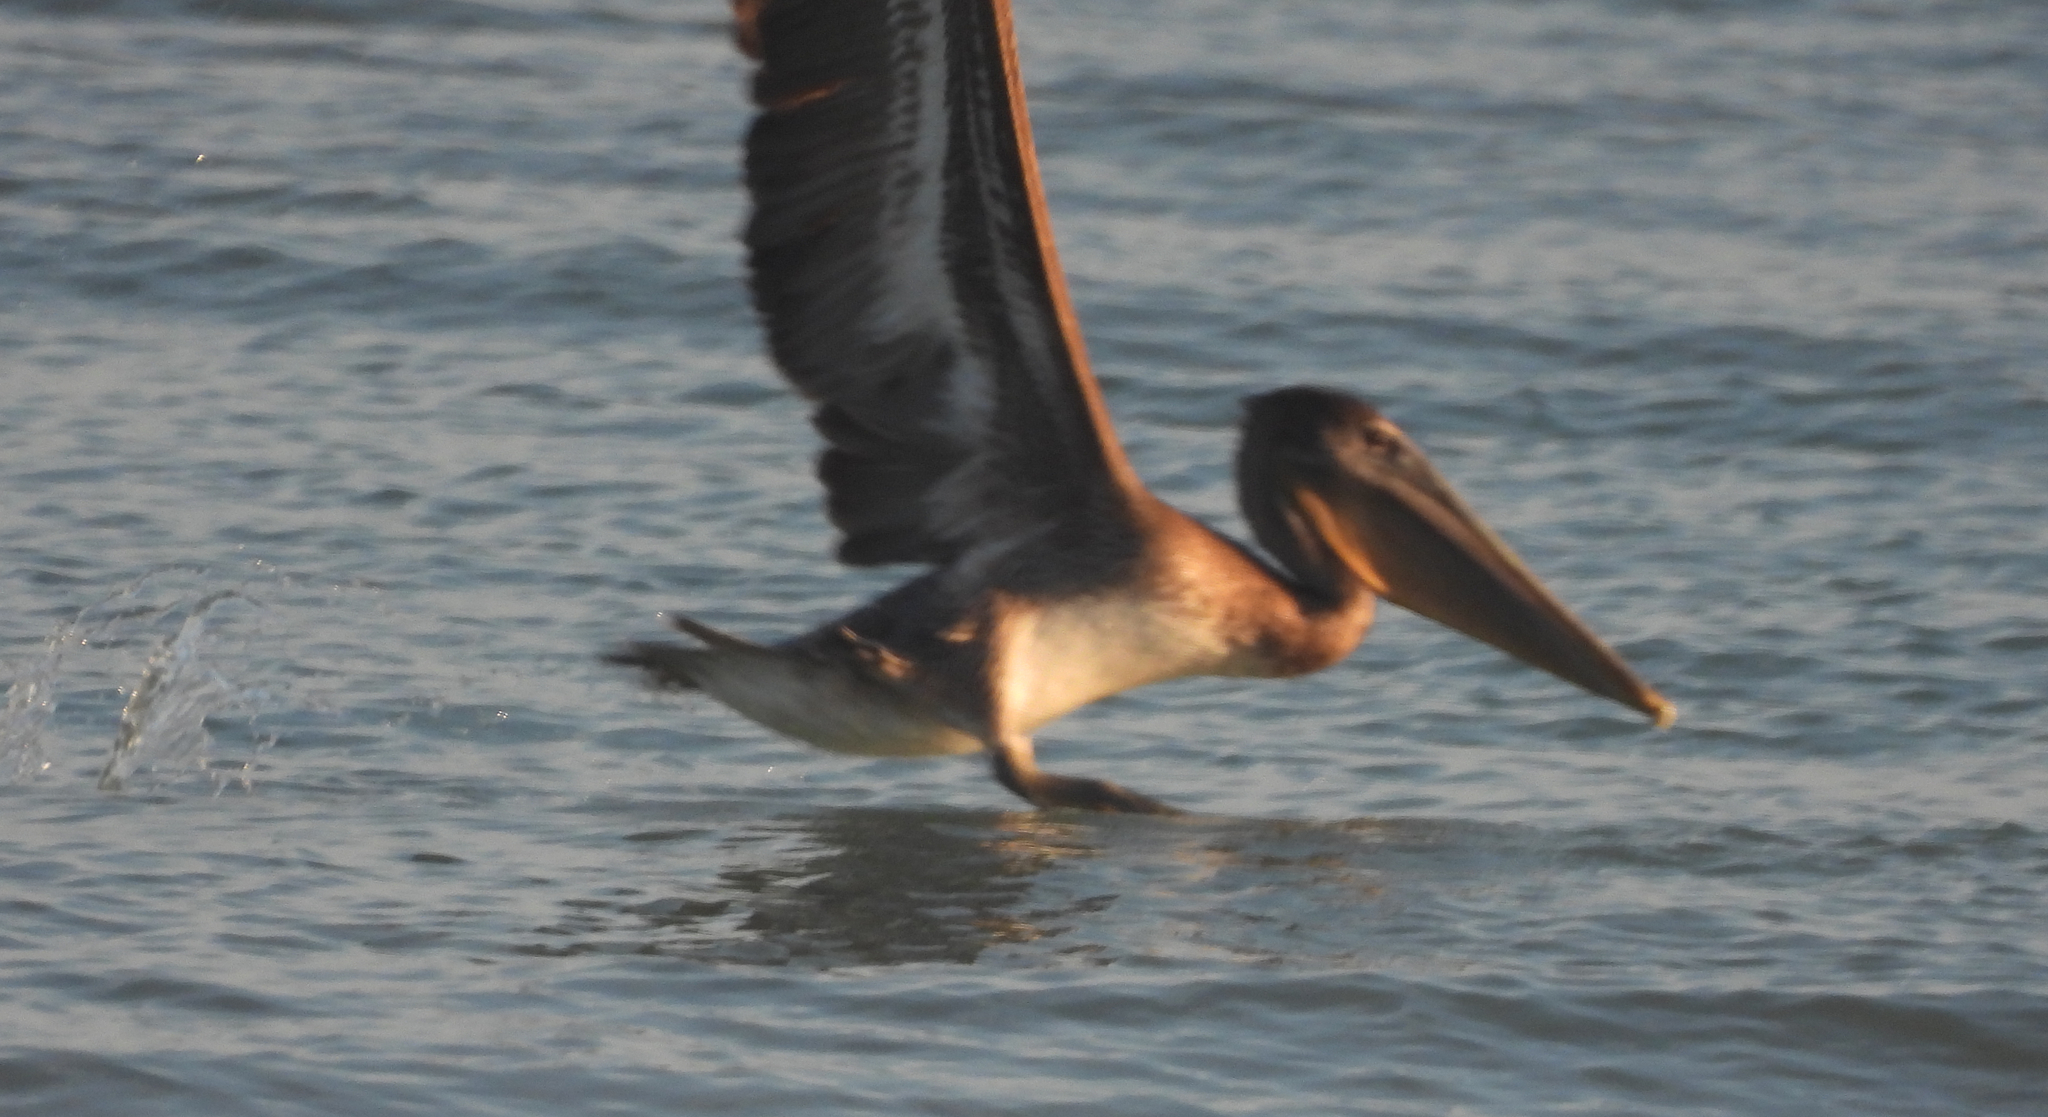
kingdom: Animalia
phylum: Chordata
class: Aves
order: Pelecaniformes
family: Pelecanidae
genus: Pelecanus
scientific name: Pelecanus occidentalis
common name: Brown pelican
